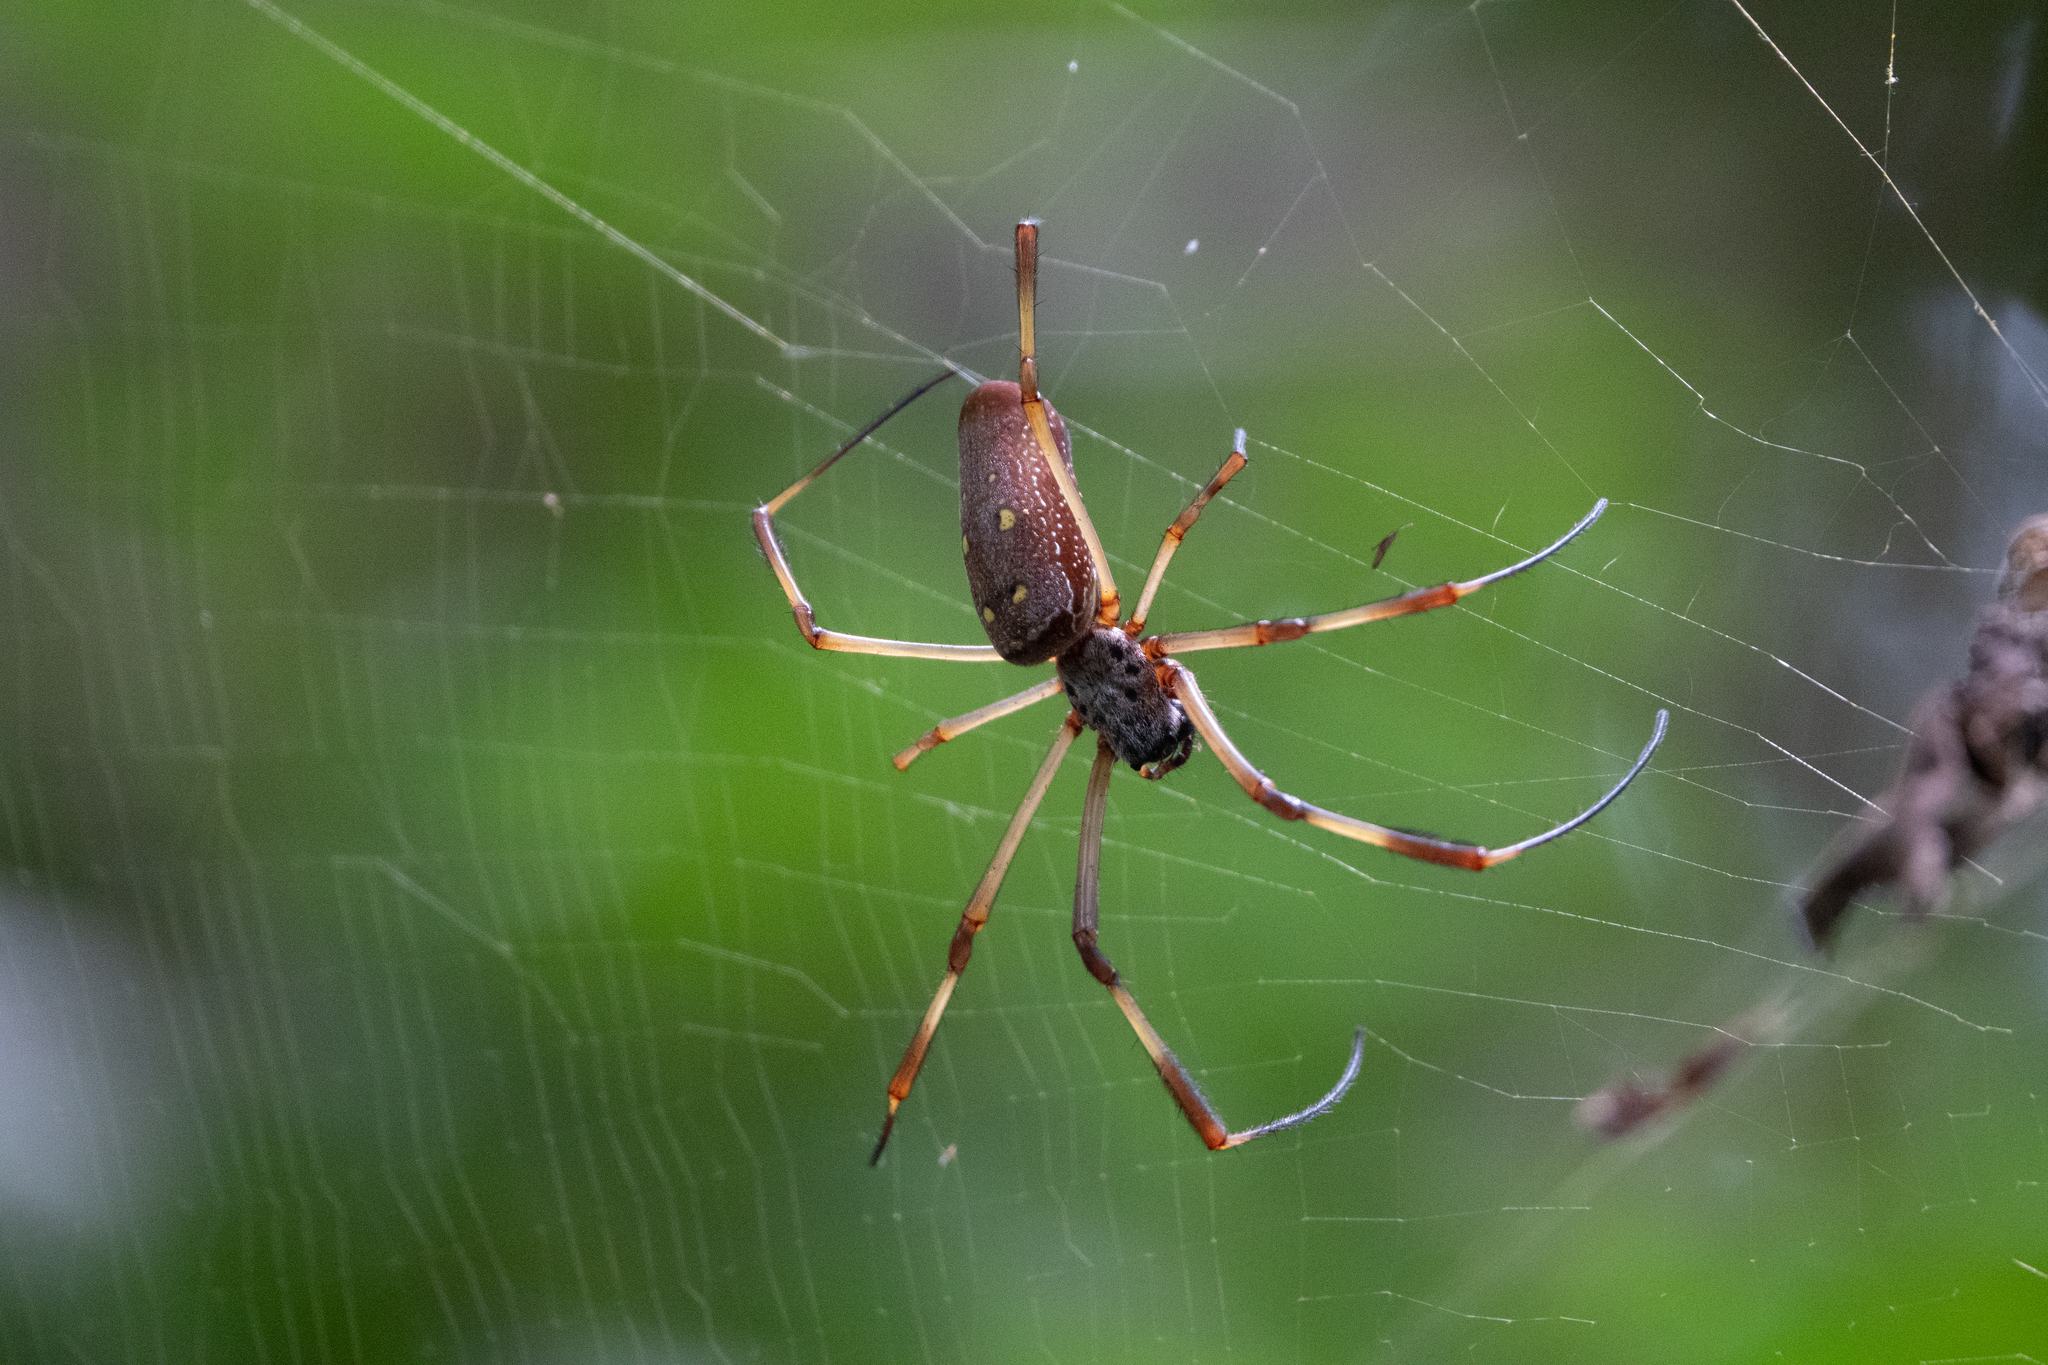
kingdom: Animalia
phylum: Arthropoda
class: Arachnida
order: Araneae
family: Araneidae
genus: Trichonephila
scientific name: Trichonephila clavipes
